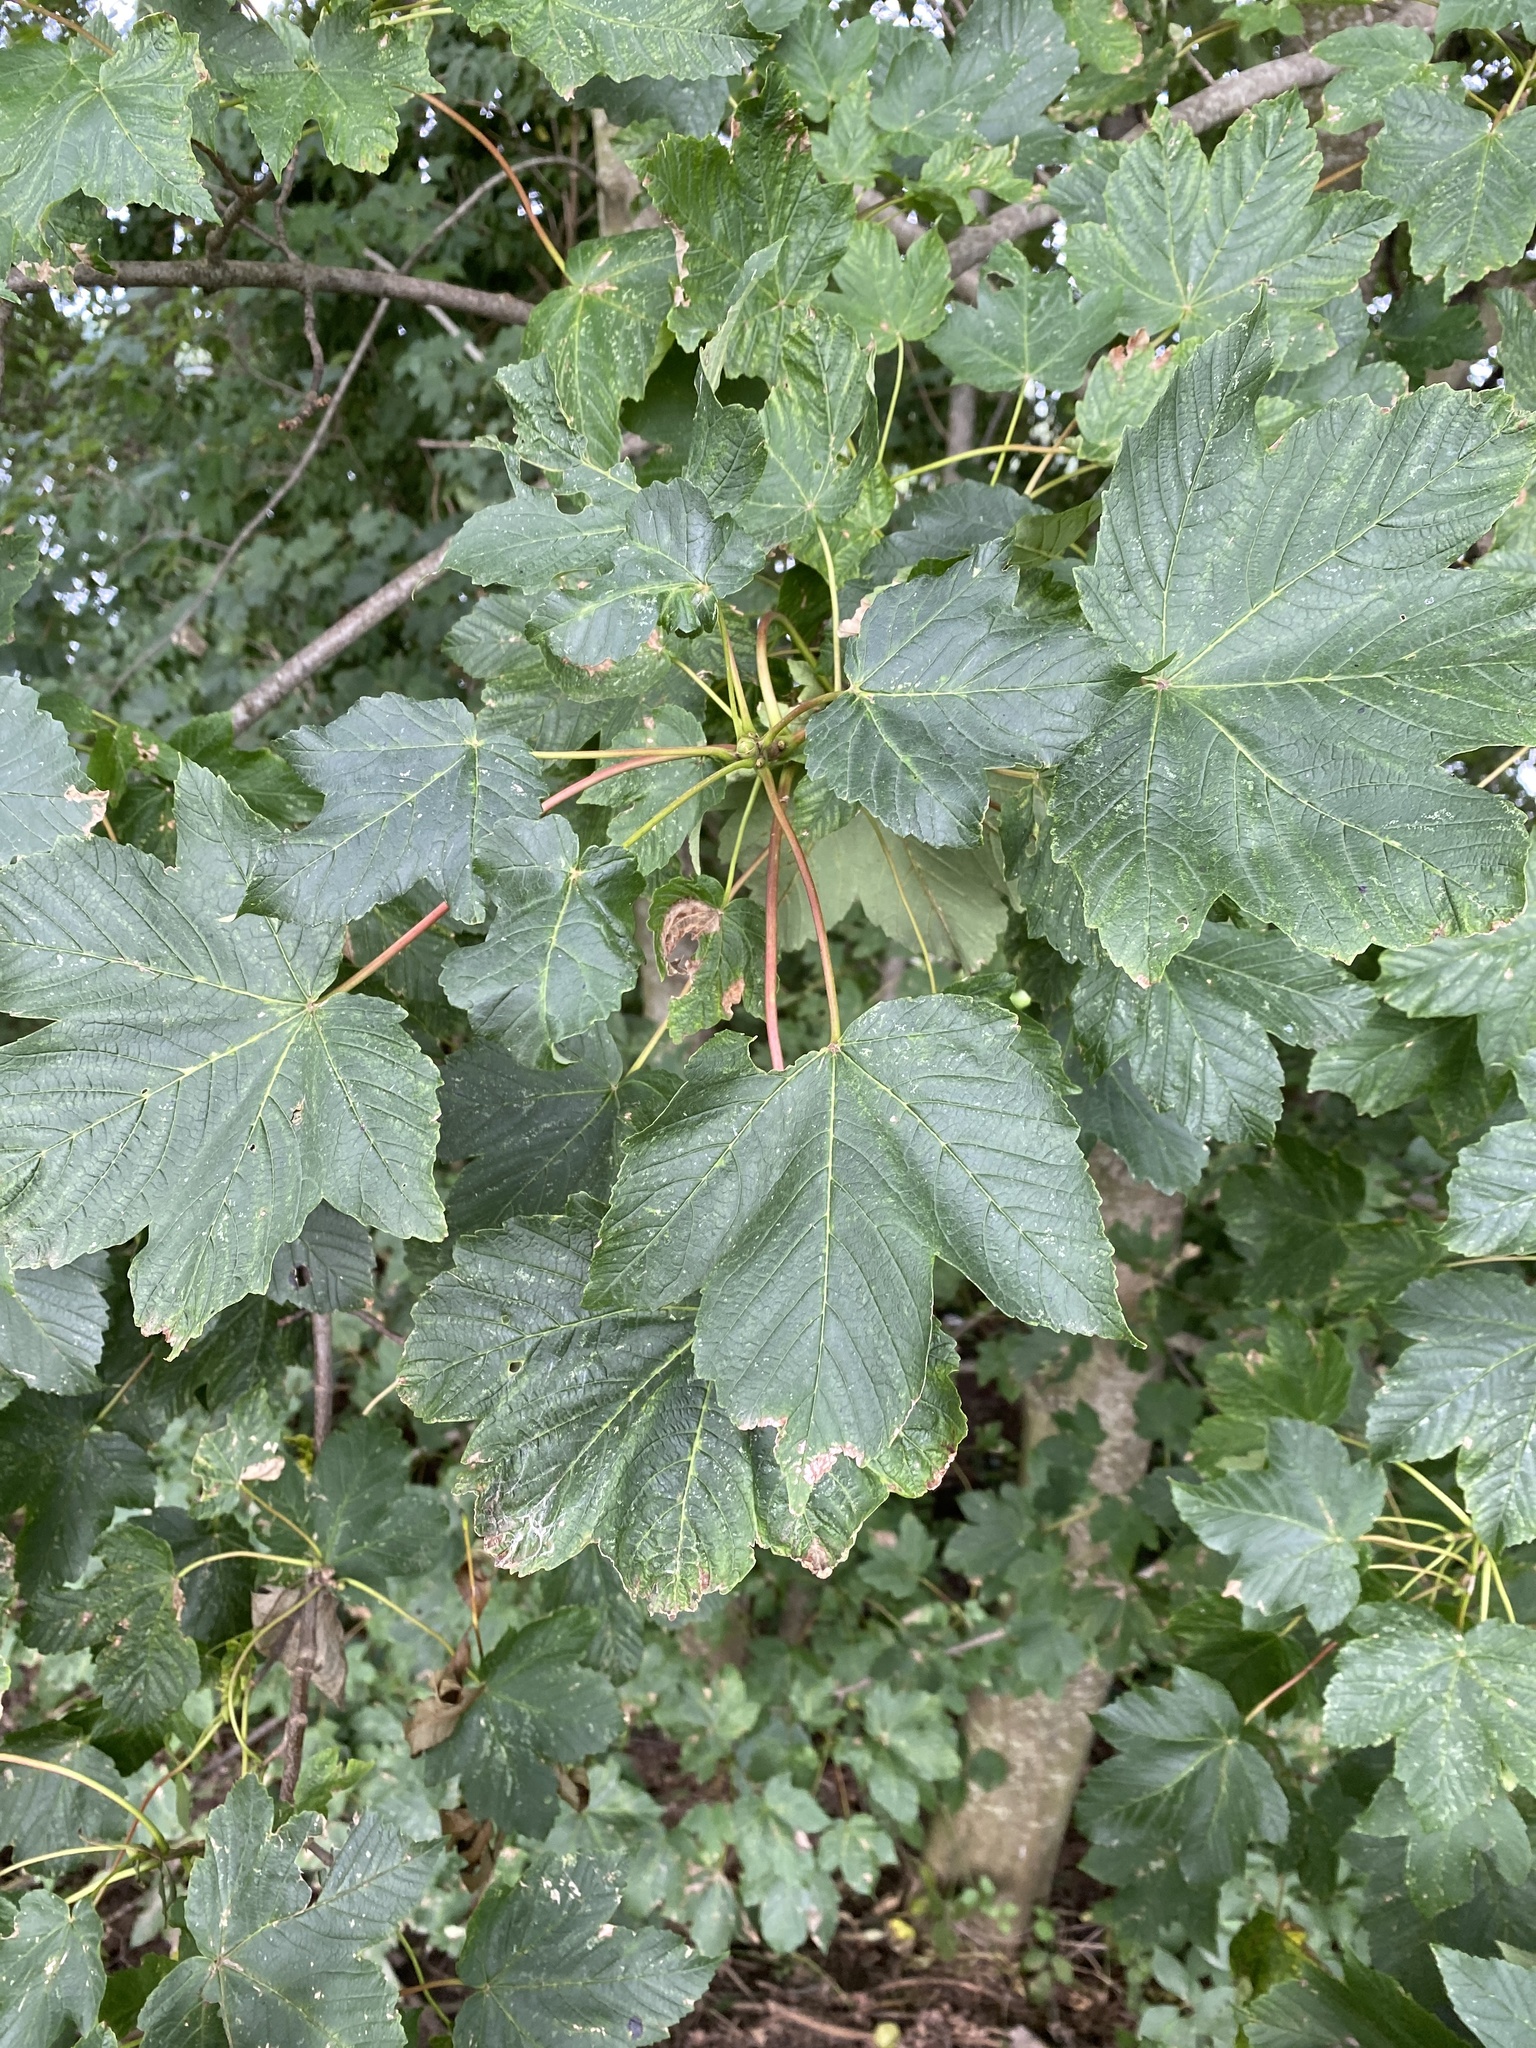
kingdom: Plantae
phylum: Tracheophyta
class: Magnoliopsida
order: Sapindales
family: Sapindaceae
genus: Acer
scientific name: Acer pseudoplatanus
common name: Sycamore
